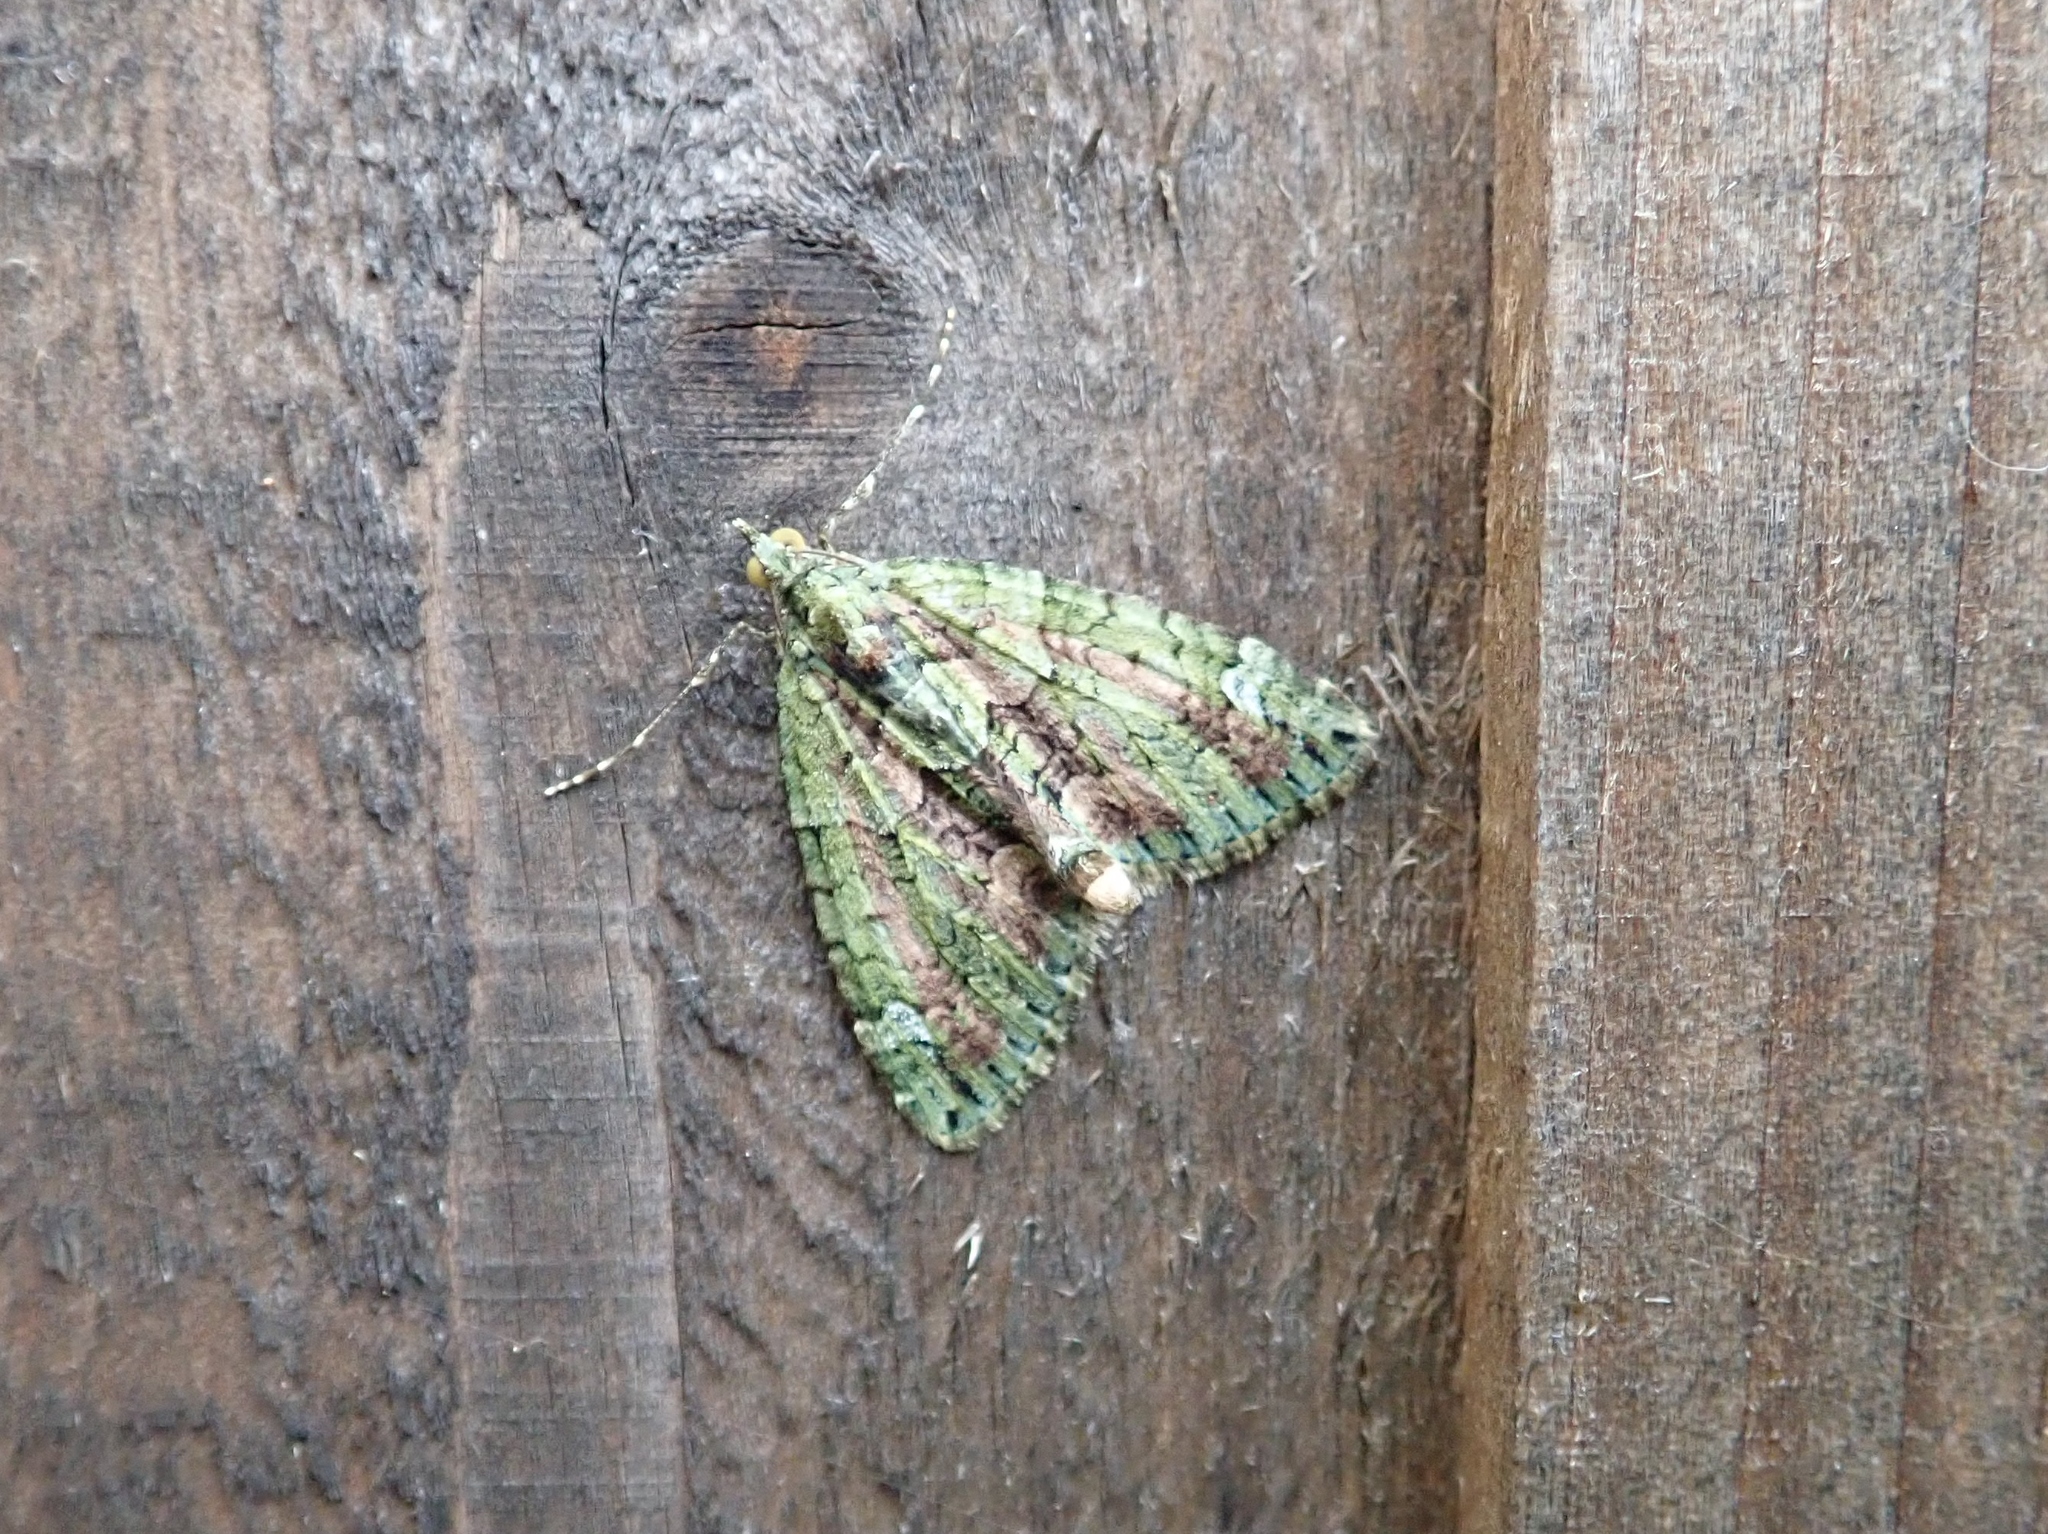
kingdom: Animalia
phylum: Arthropoda
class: Insecta
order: Lepidoptera
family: Geometridae
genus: Chloroclysta
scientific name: Chloroclysta siterata
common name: Red-green carpet
